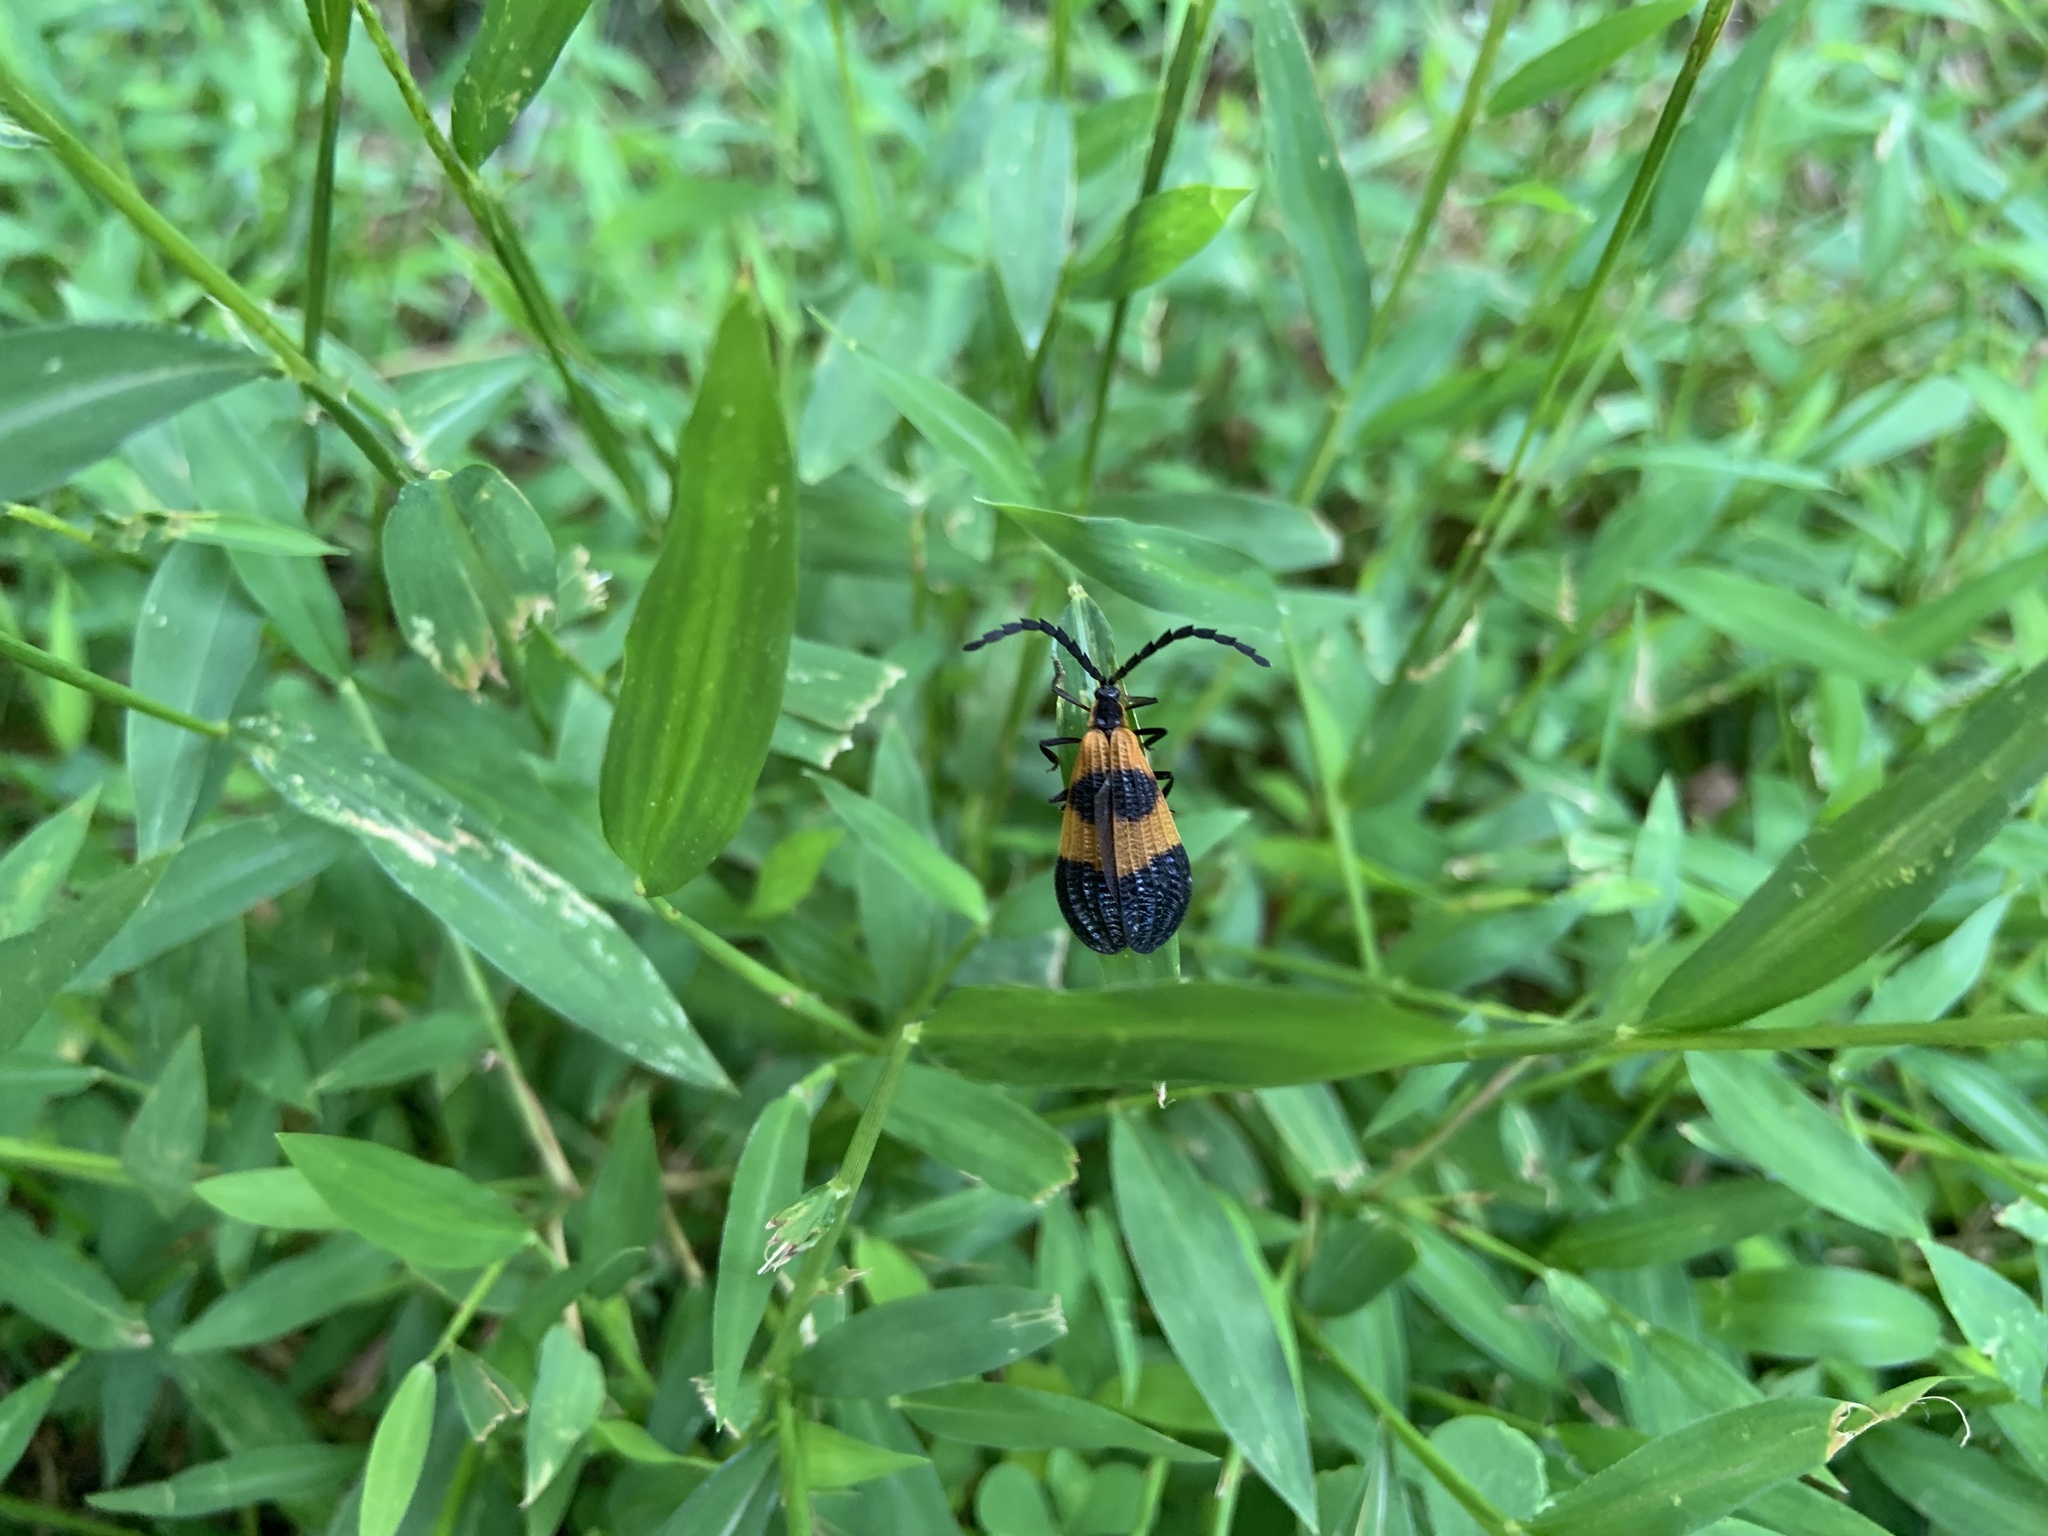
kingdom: Animalia
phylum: Arthropoda
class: Insecta
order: Coleoptera
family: Lycidae
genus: Calopteron
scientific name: Calopteron terminale
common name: End band net-winged beetle
